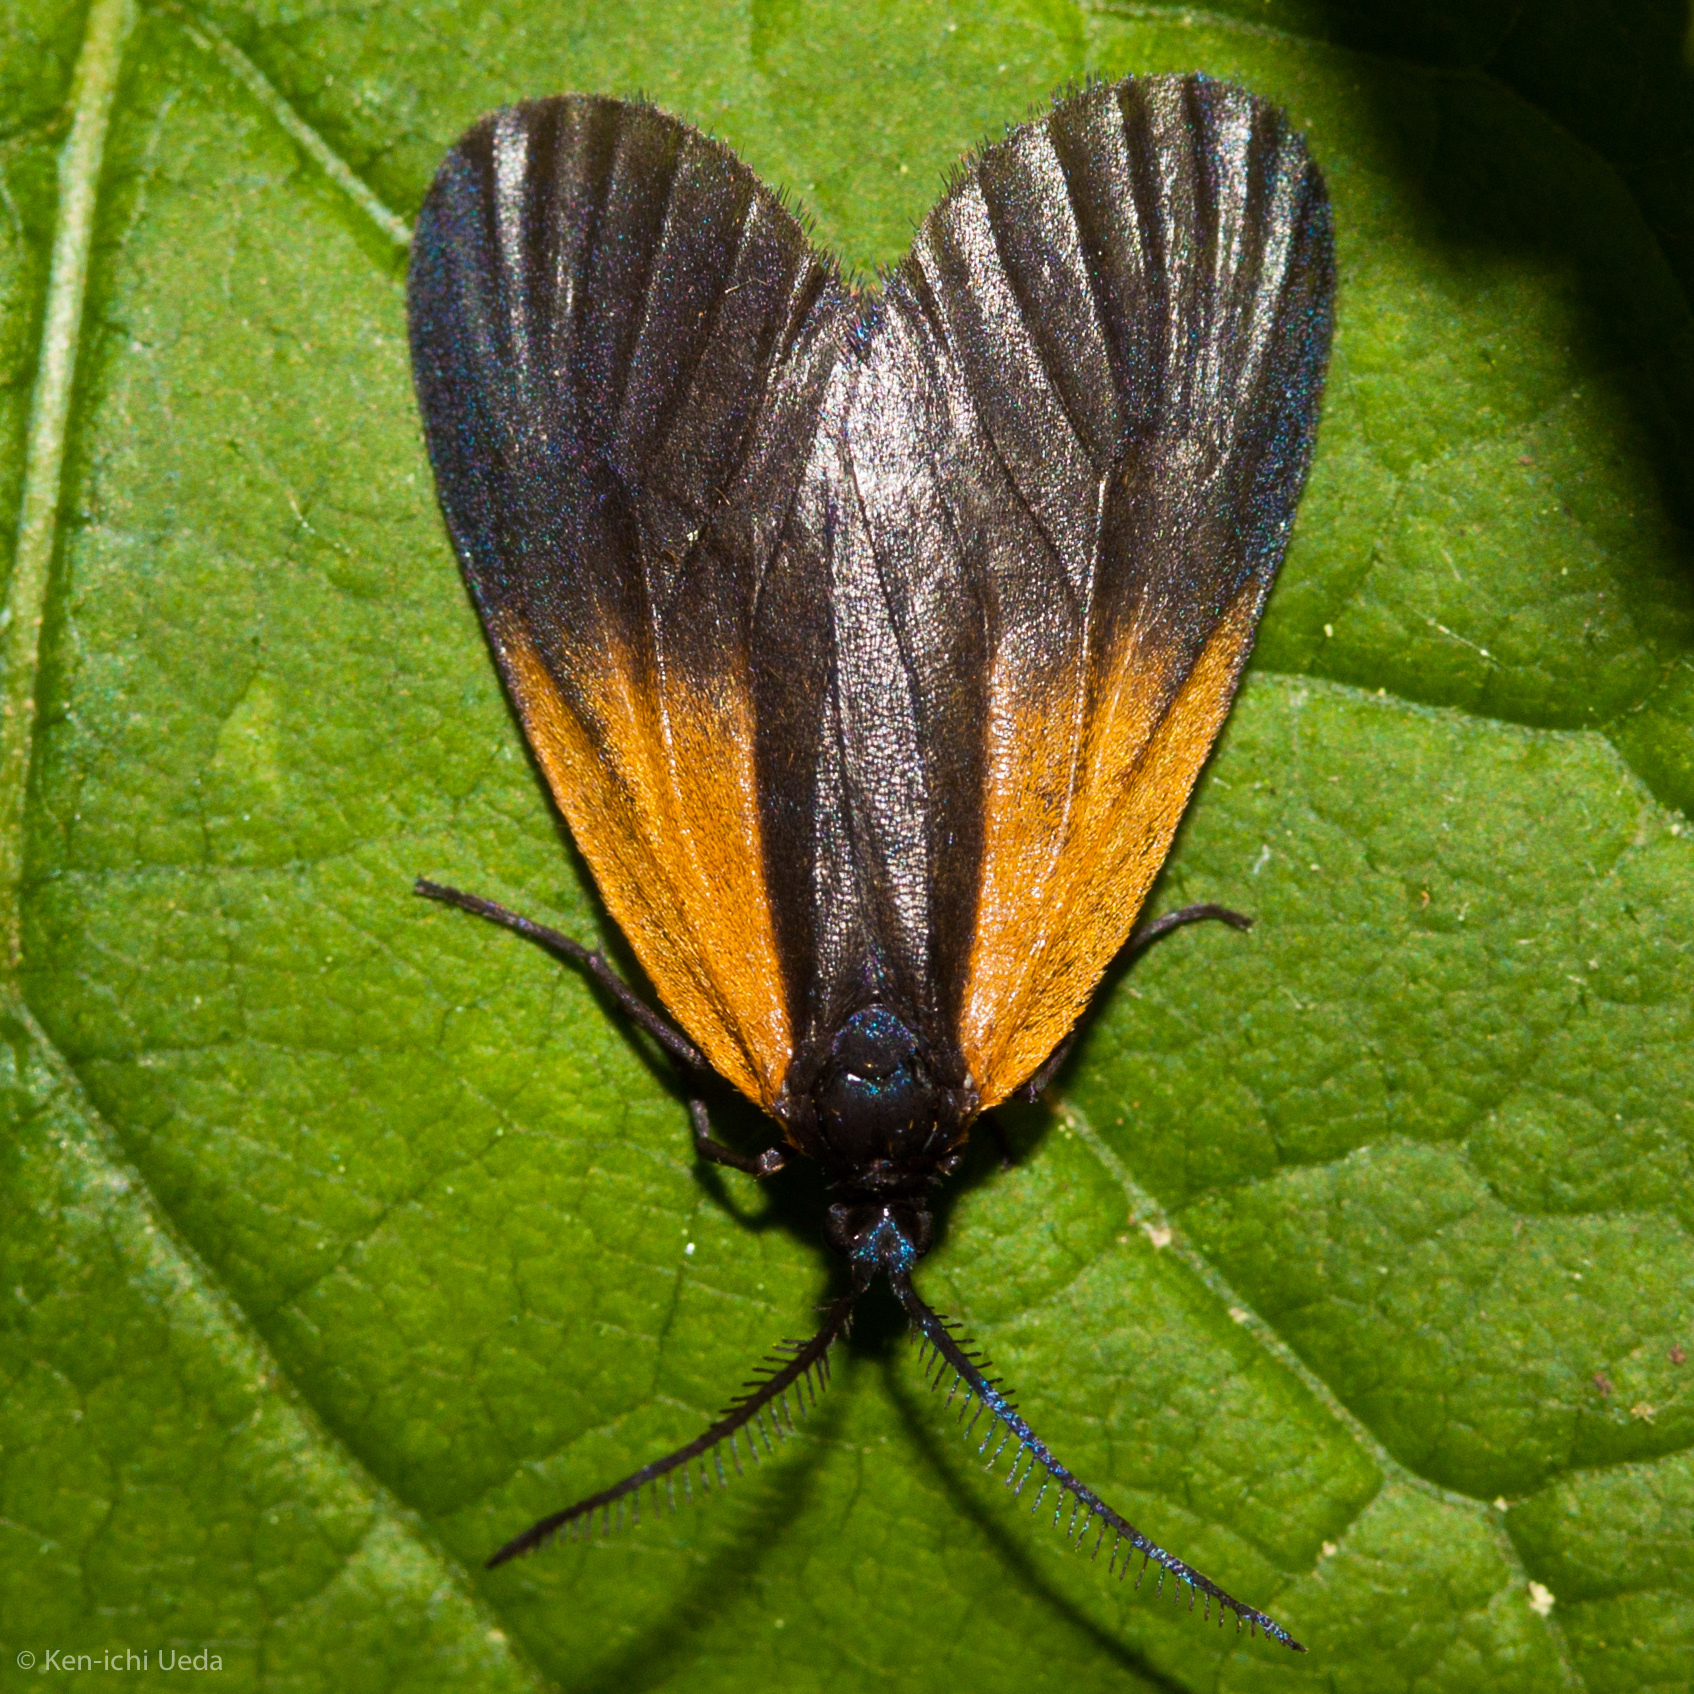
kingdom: Animalia
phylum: Arthropoda
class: Insecta
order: Lepidoptera
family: Zygaenidae
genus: Malthaca
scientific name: Malthaca dimidiata
